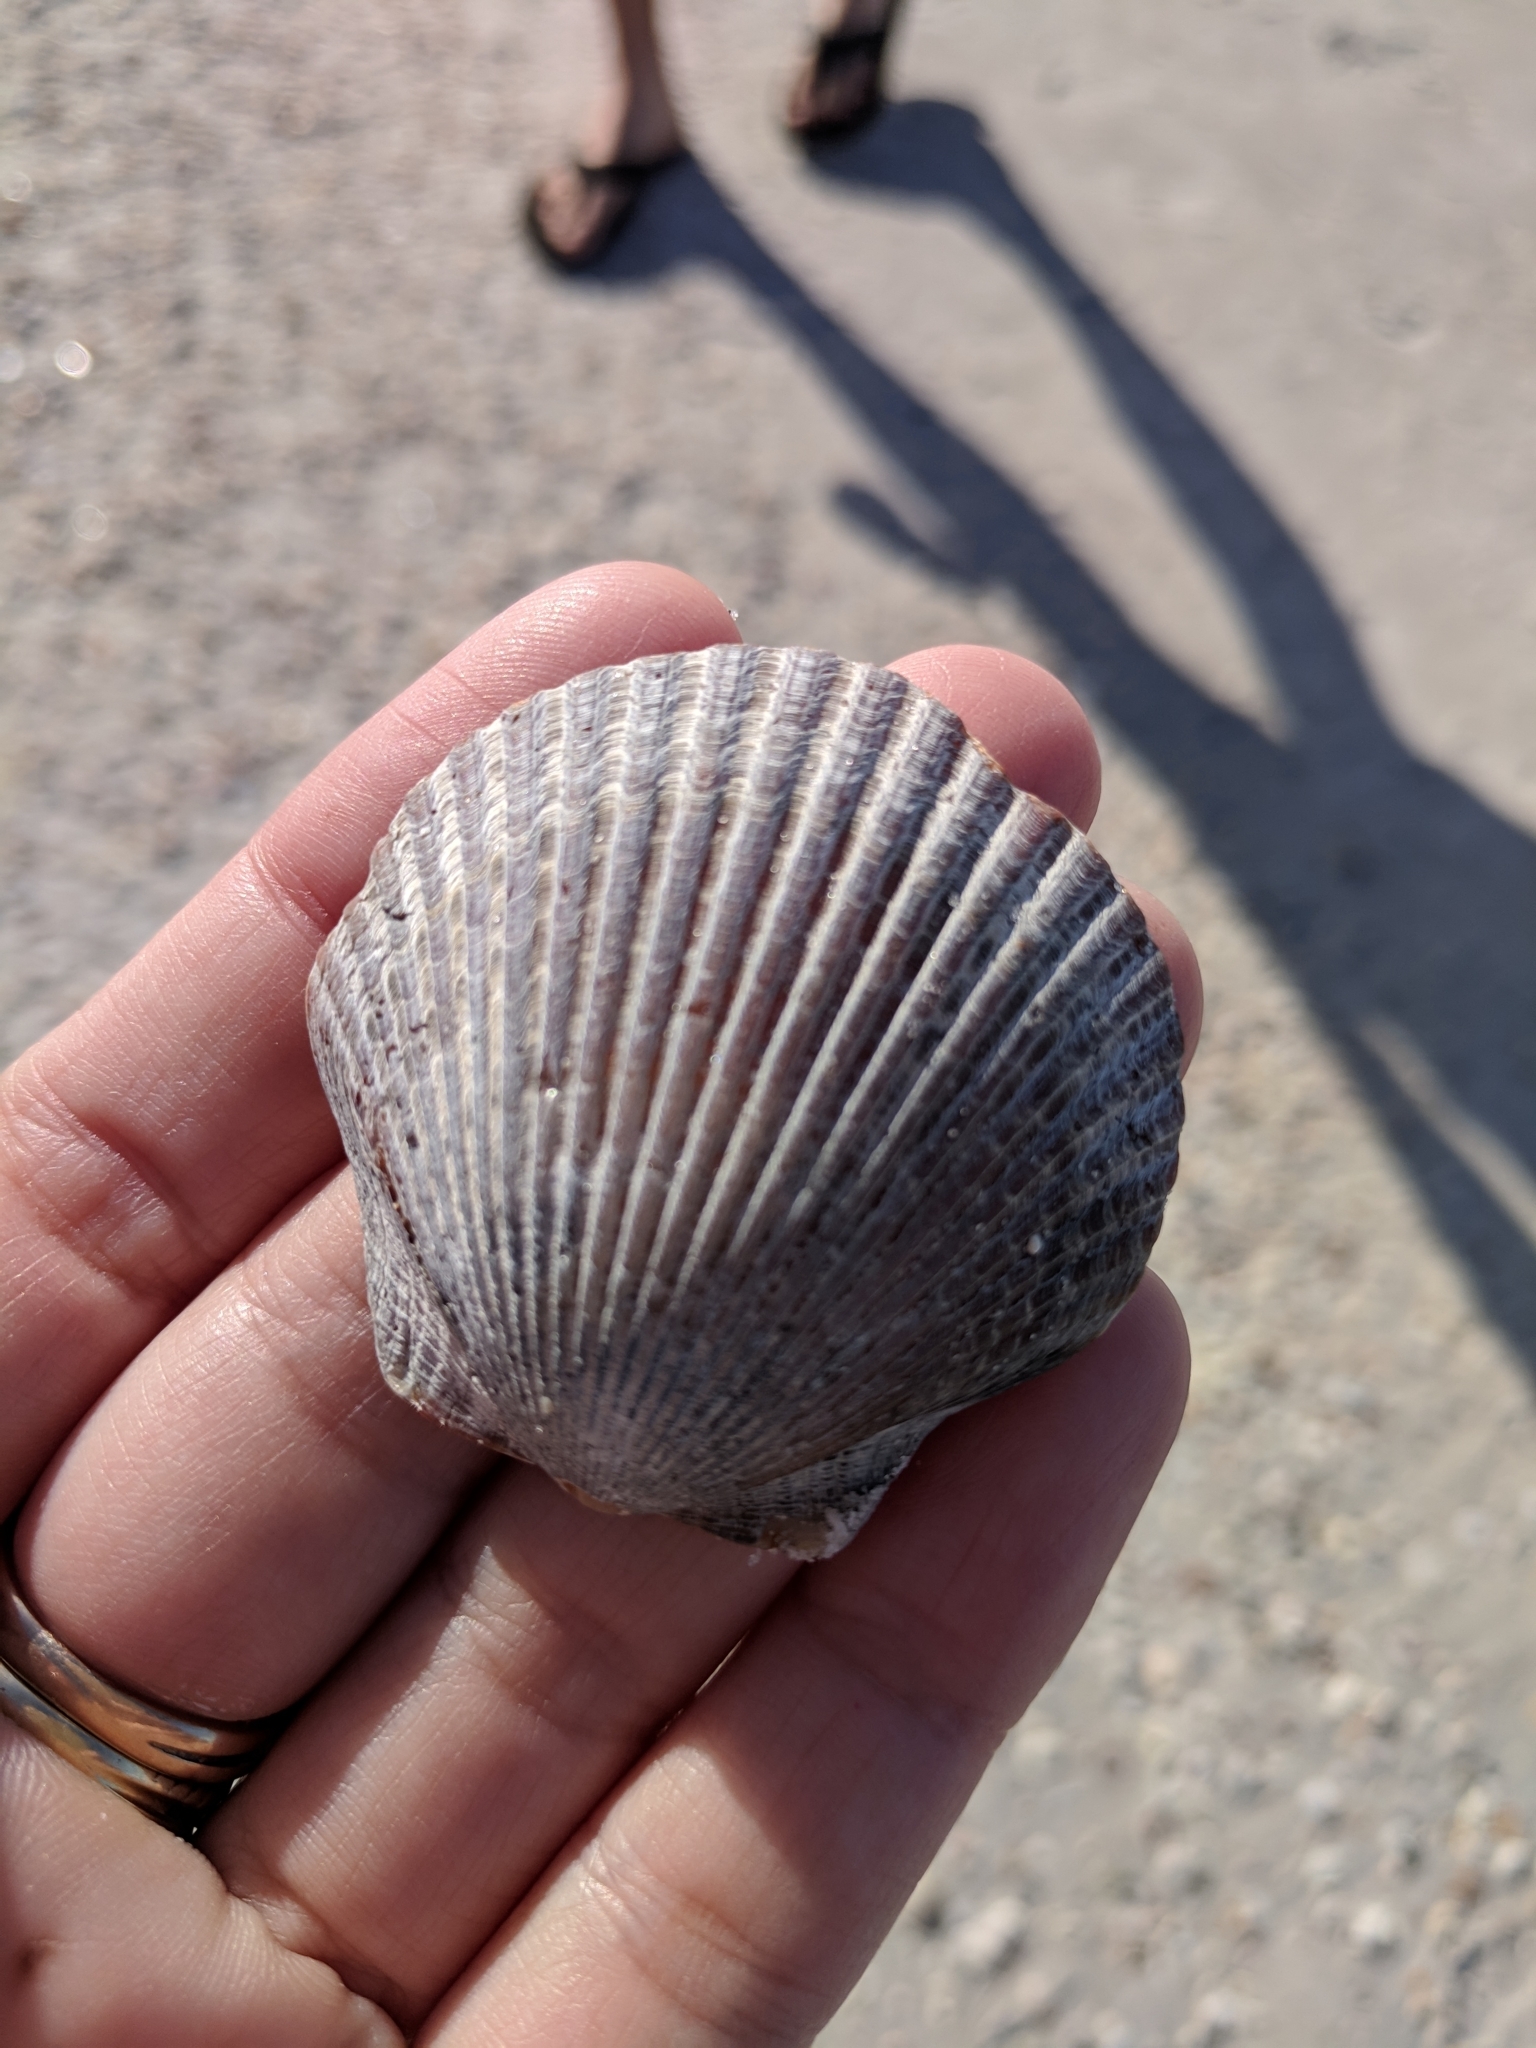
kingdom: Animalia
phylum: Mollusca
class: Bivalvia
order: Pectinida
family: Pectinidae
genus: Argopecten
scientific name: Argopecten irradians
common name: Atlantic bay scallop
